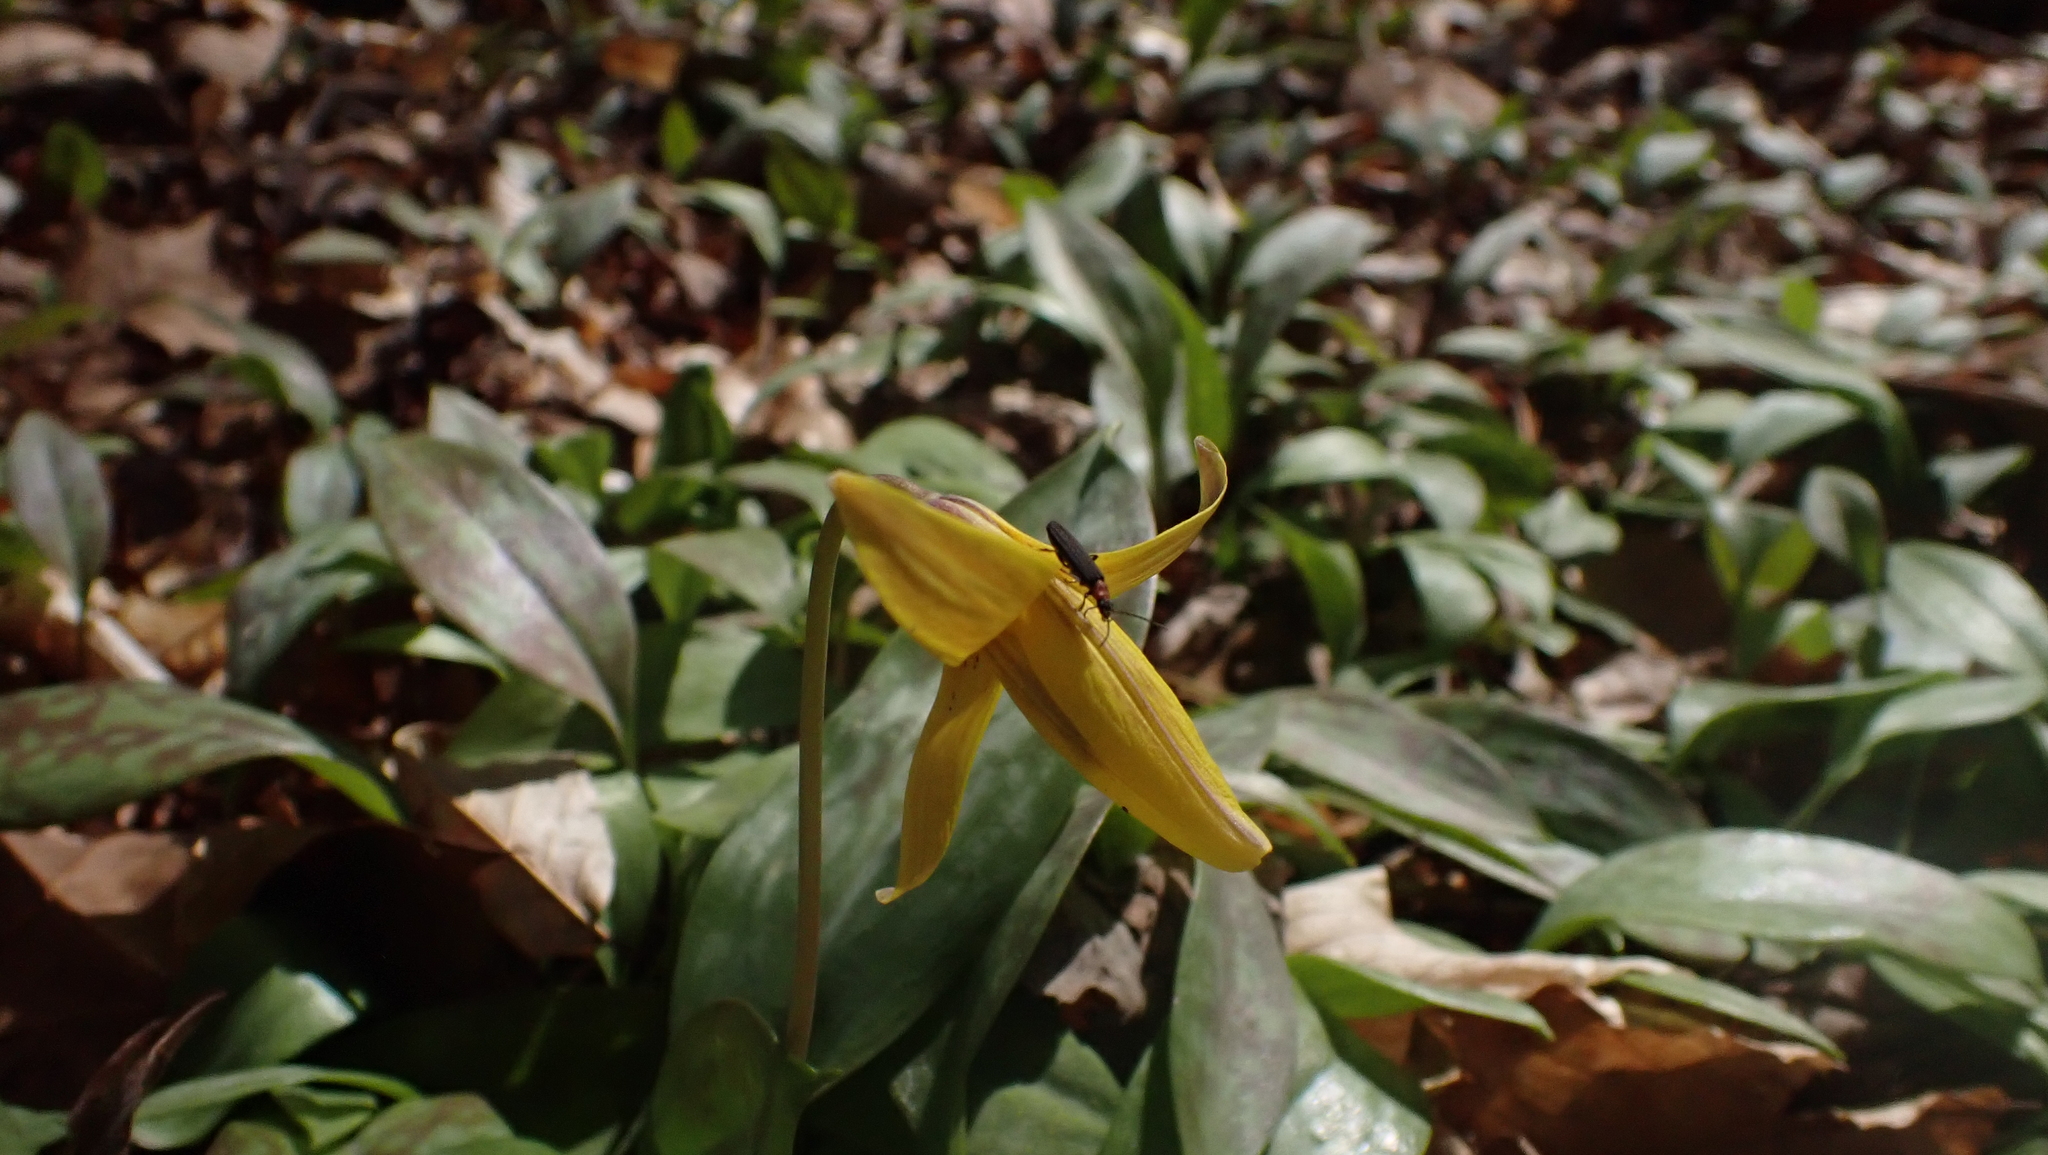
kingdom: Plantae
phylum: Tracheophyta
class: Liliopsida
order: Liliales
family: Liliaceae
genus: Erythronium
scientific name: Erythronium americanum
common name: Yellow adder's-tongue
